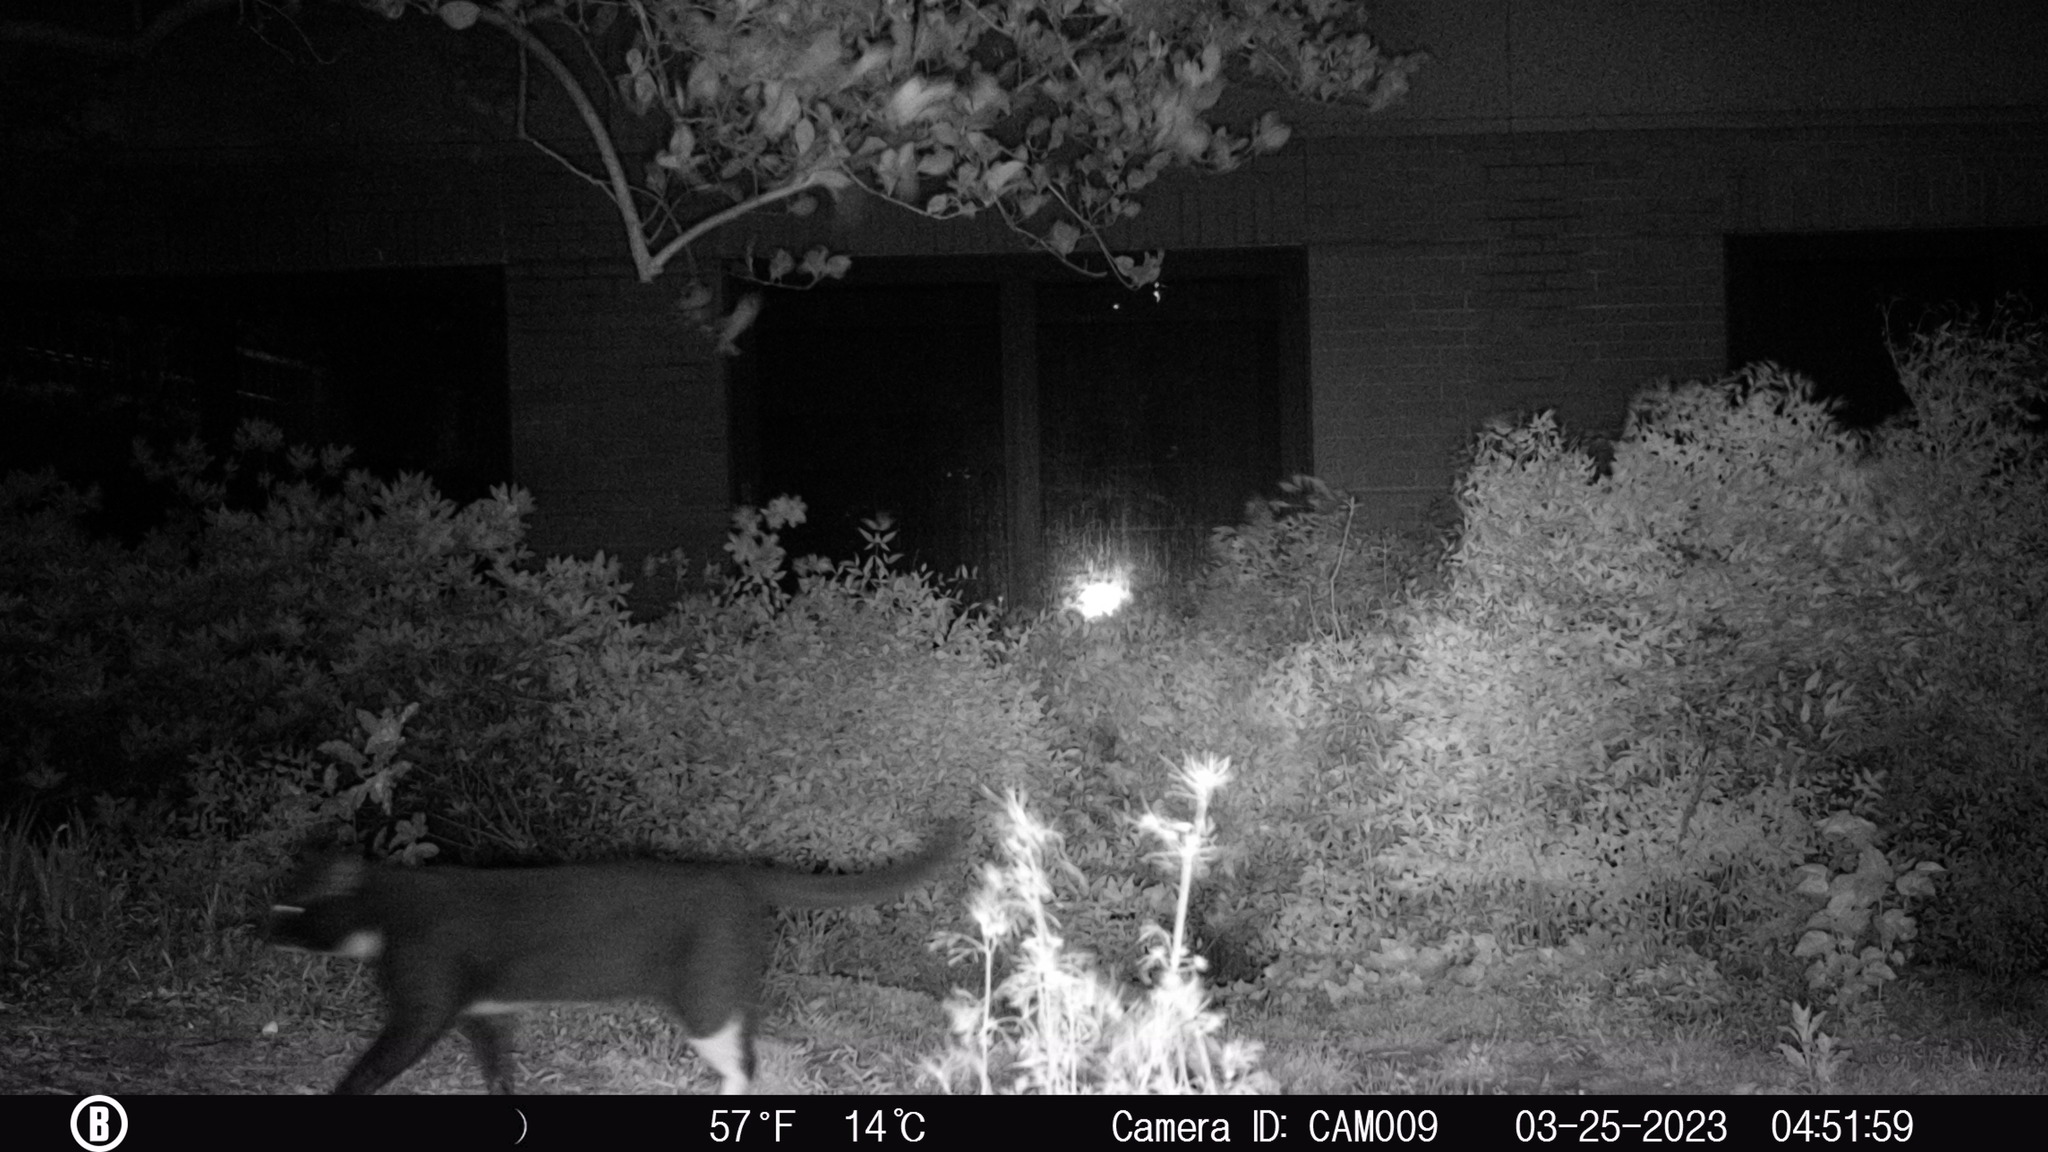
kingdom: Animalia
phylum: Chordata
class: Mammalia
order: Carnivora
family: Felidae
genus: Felis
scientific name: Felis catus
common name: Domestic cat
